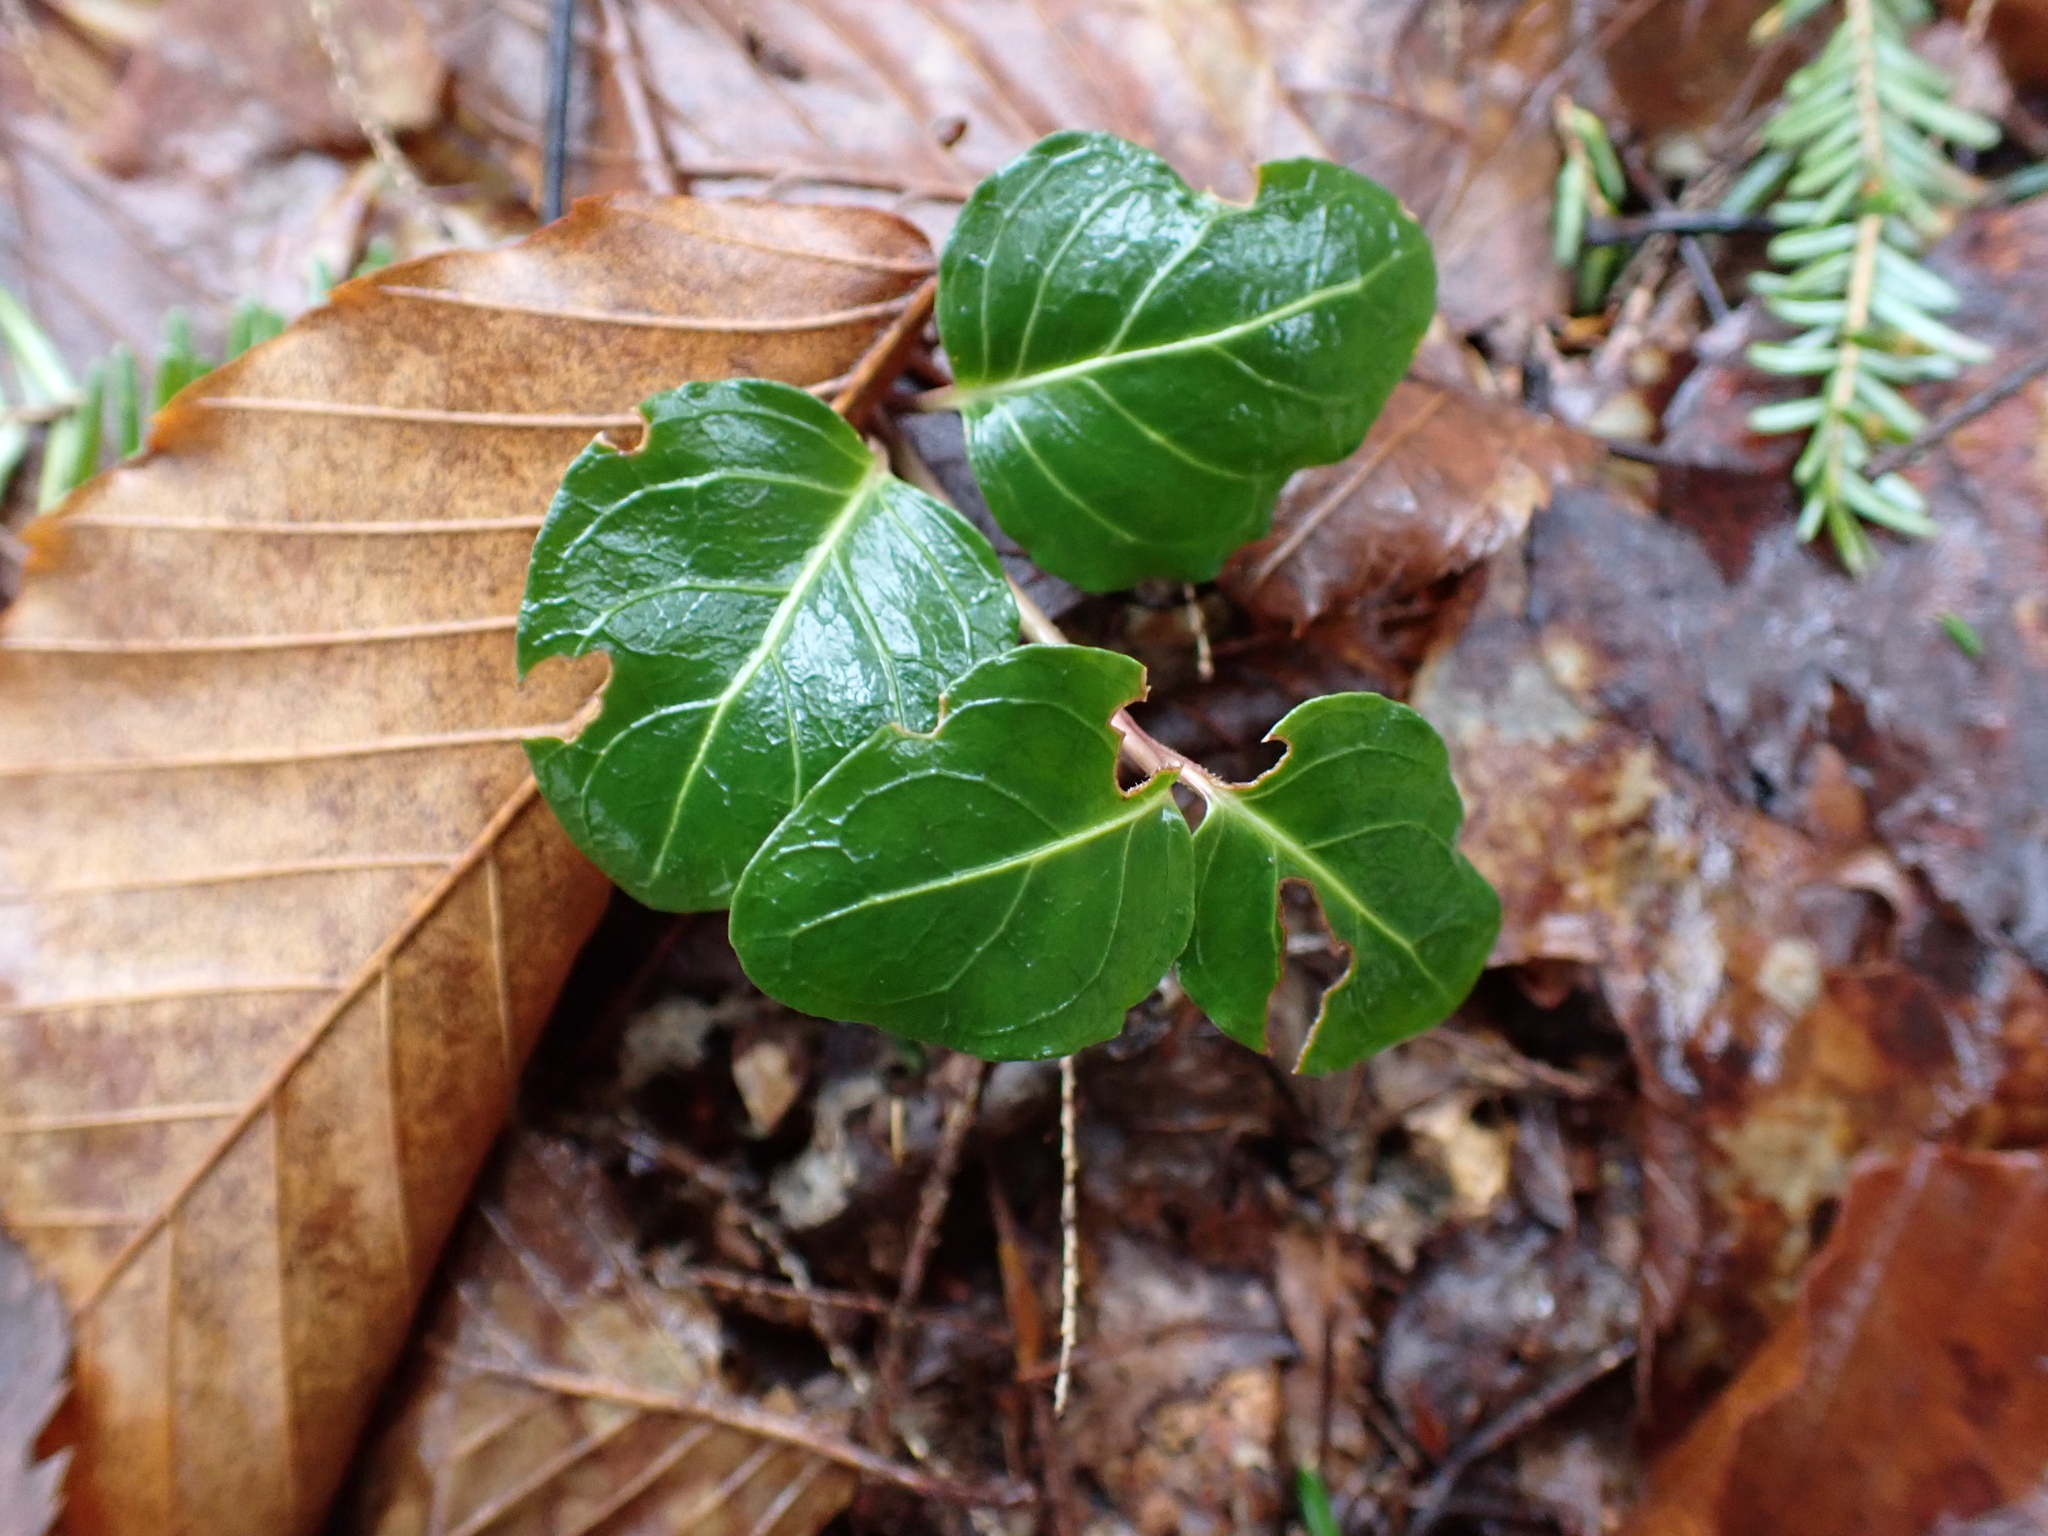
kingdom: Plantae
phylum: Tracheophyta
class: Magnoliopsida
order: Gentianales
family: Rubiaceae
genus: Mitchella
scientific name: Mitchella repens
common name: Partridge-berry
